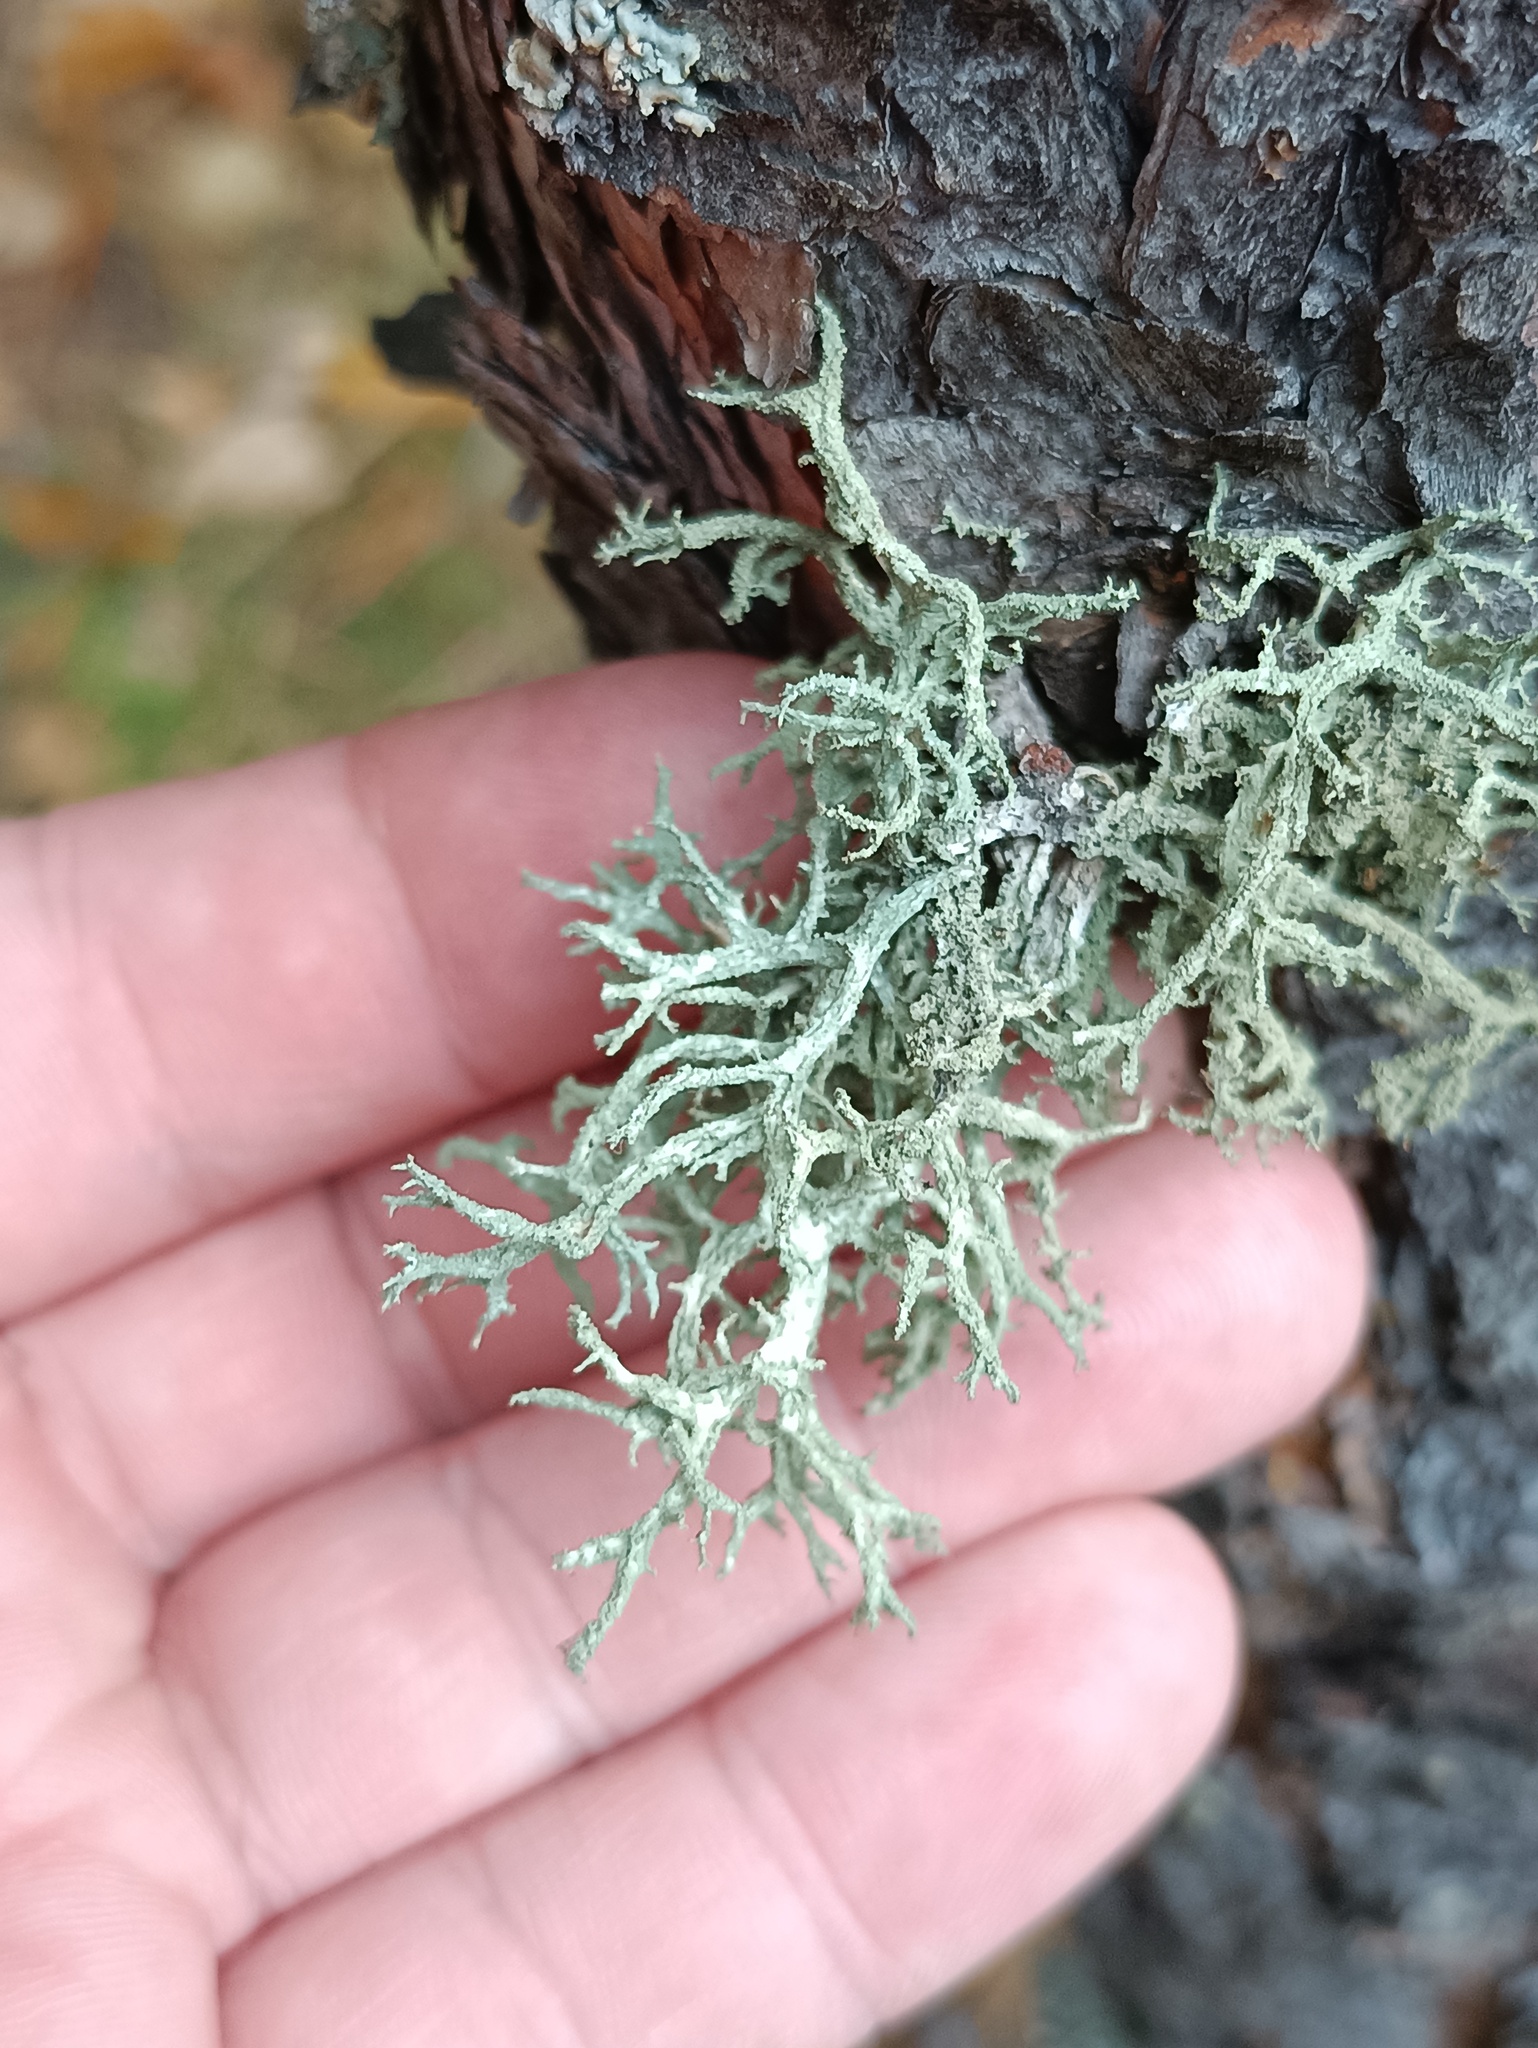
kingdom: Fungi
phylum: Ascomycota
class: Lecanoromycetes
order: Lecanorales
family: Parmeliaceae
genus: Evernia
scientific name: Evernia mesomorpha
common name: Boreal oak moss lichen
